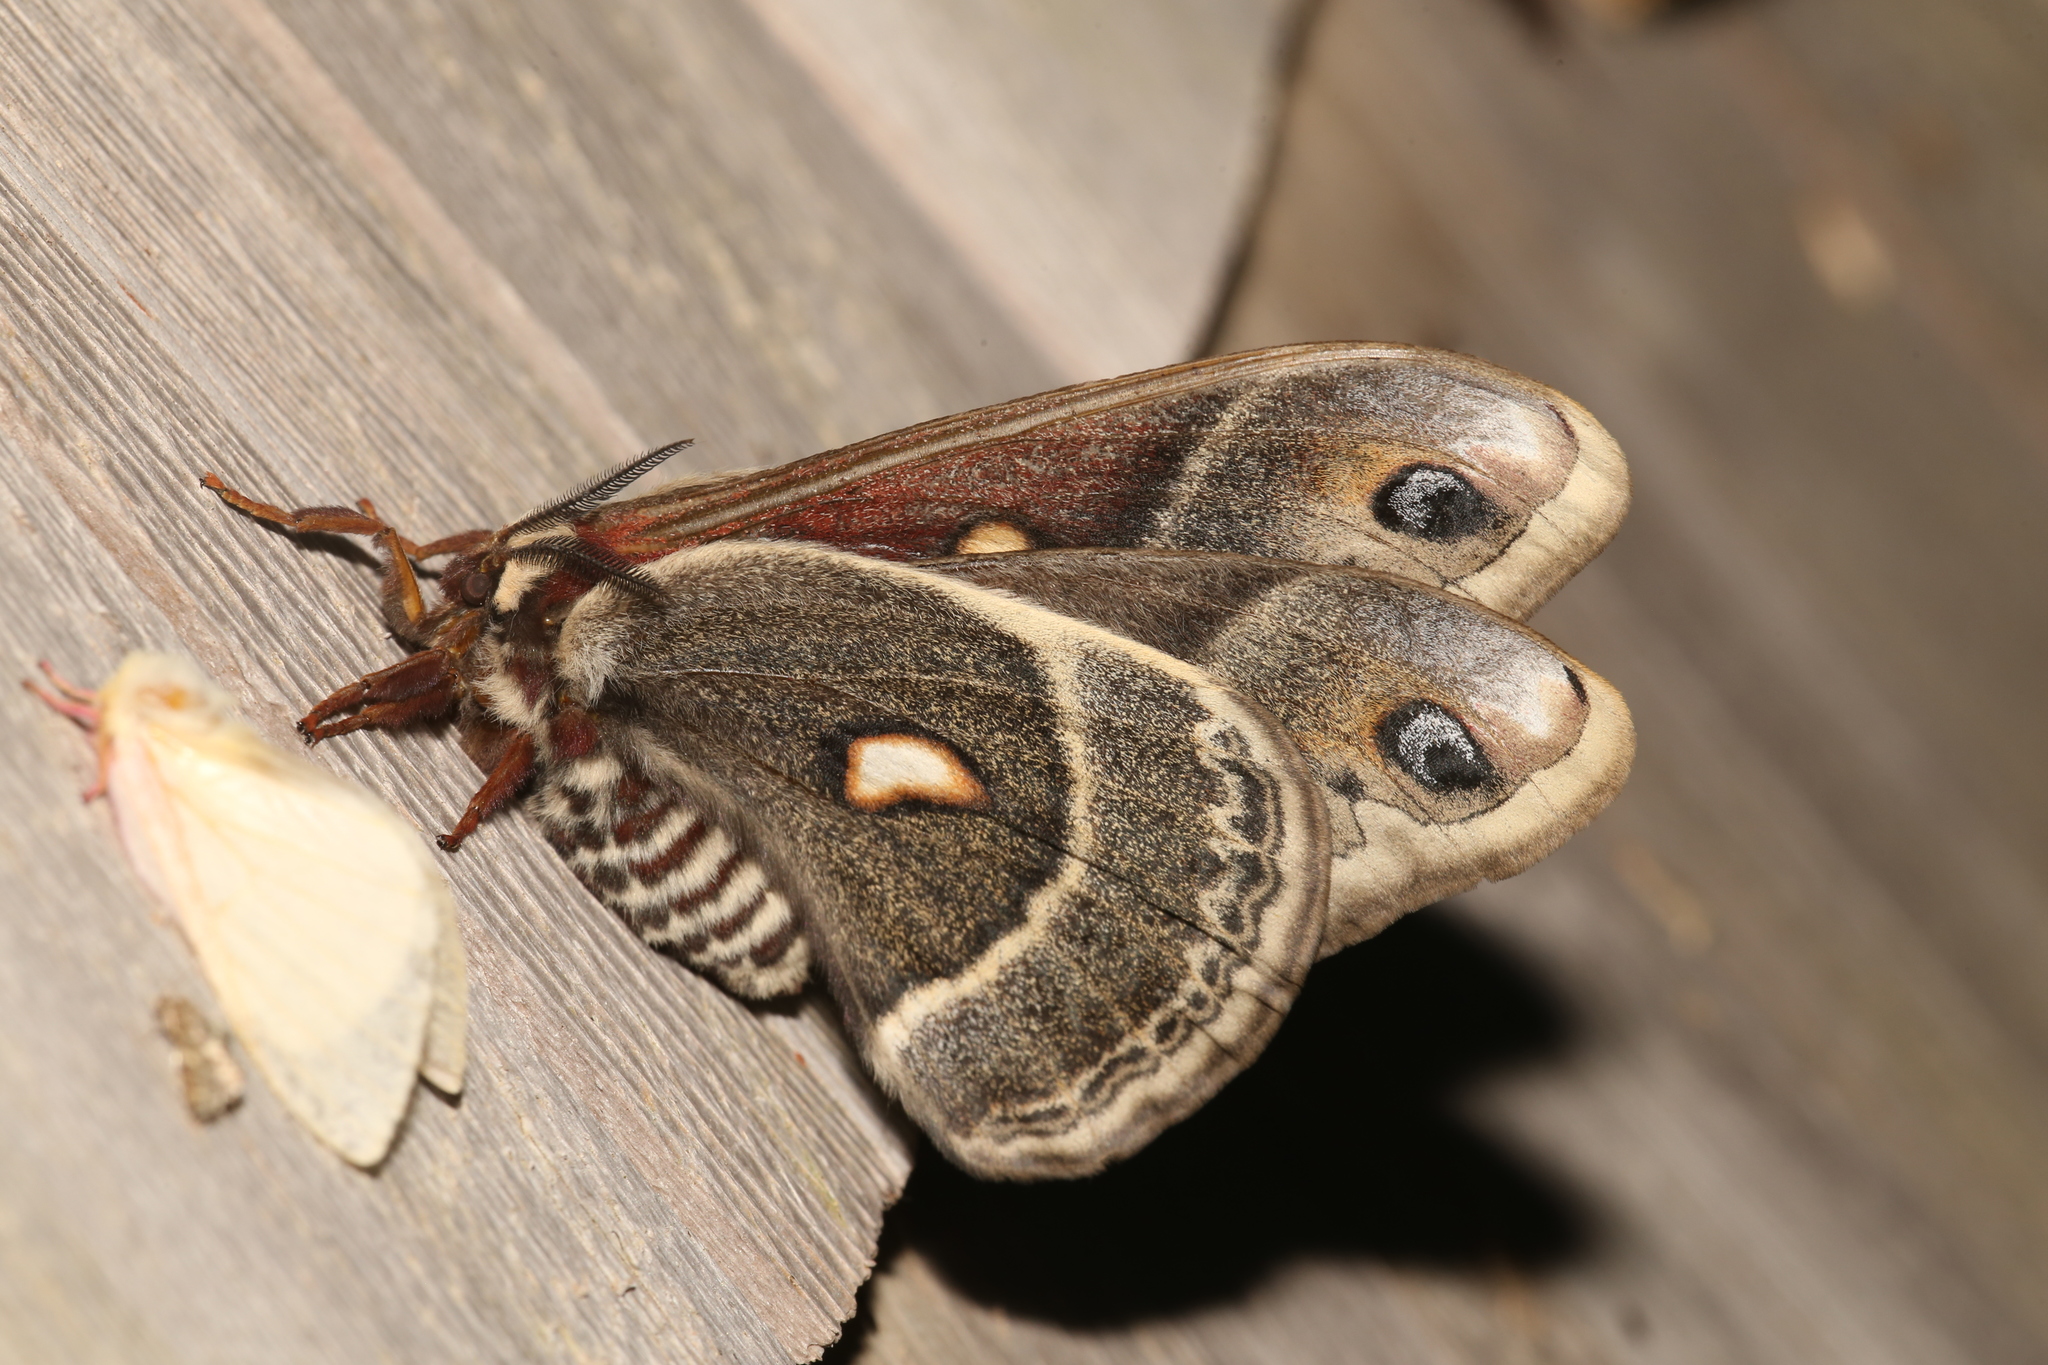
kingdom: Animalia
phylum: Arthropoda
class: Insecta
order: Lepidoptera
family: Saturniidae
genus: Hyalophora
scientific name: Hyalophora columbia
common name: Columbia silkmoth
